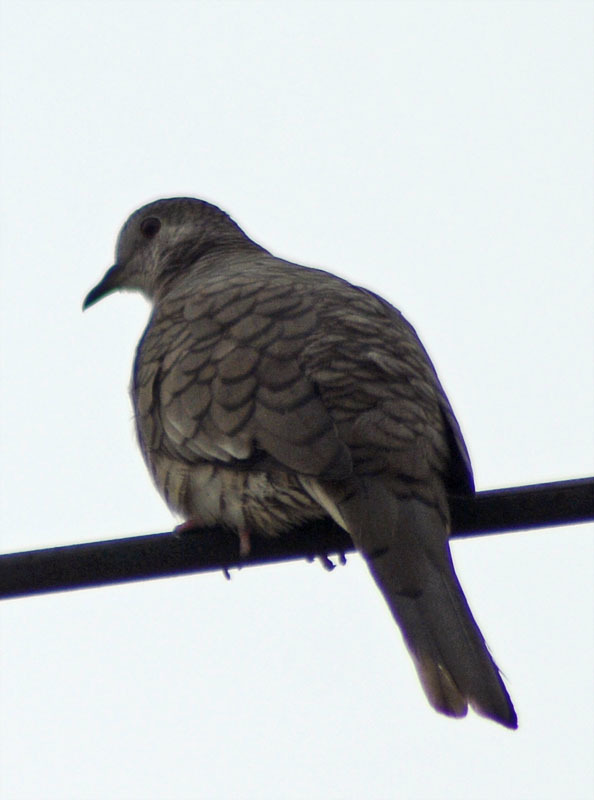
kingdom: Animalia
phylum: Chordata
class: Aves
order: Columbiformes
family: Columbidae
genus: Columbina
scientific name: Columbina inca
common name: Inca dove
